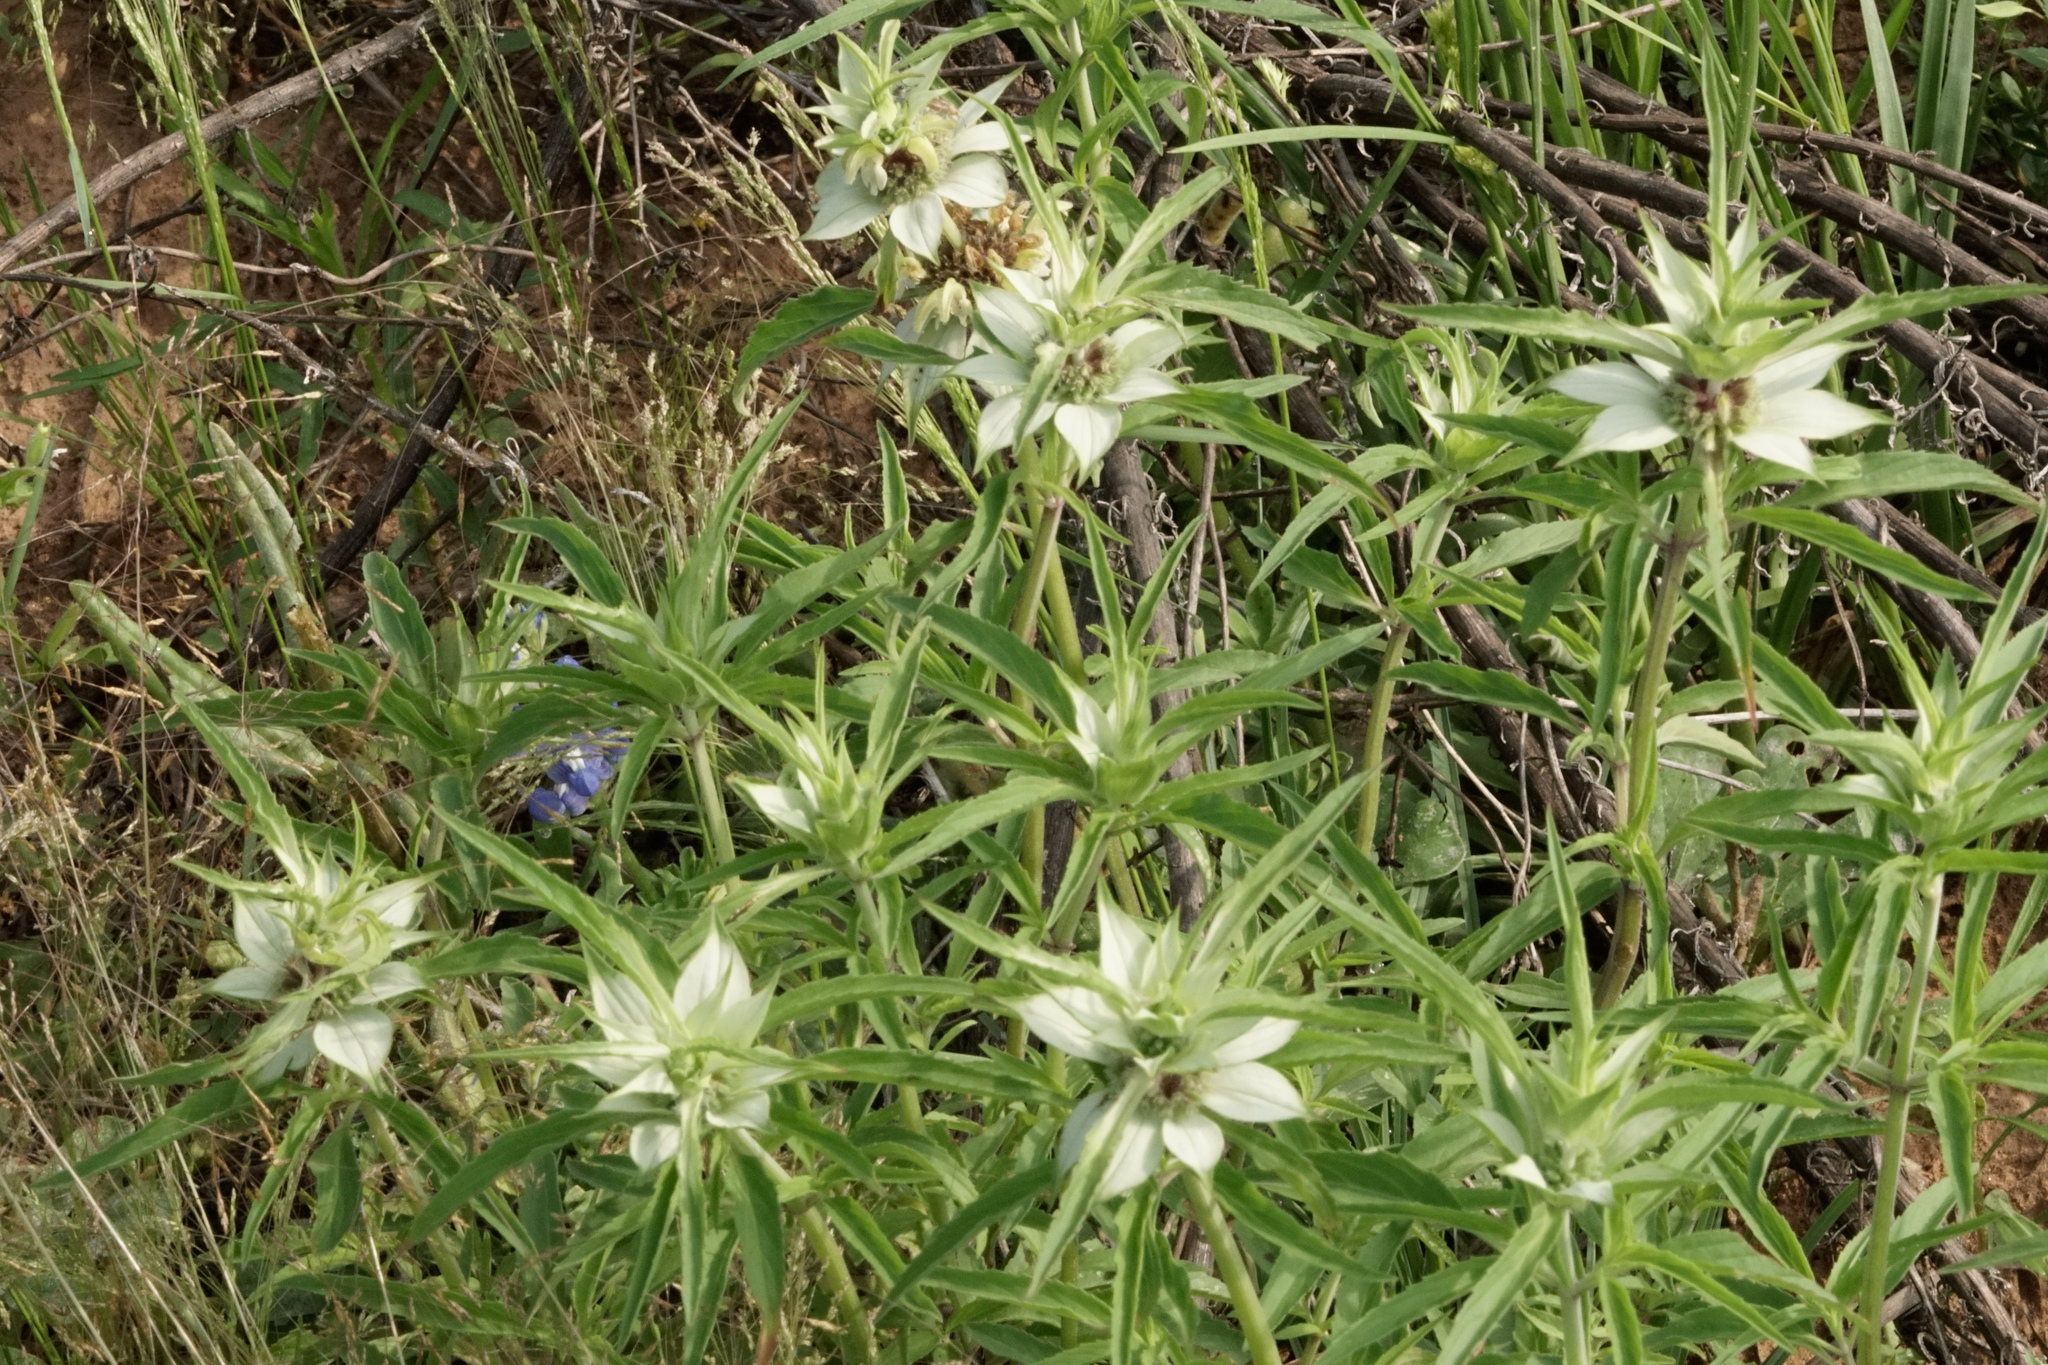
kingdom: Plantae
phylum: Tracheophyta
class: Magnoliopsida
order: Lamiales
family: Lamiaceae
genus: Monarda
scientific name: Monarda punctata
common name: Dotted monarda
